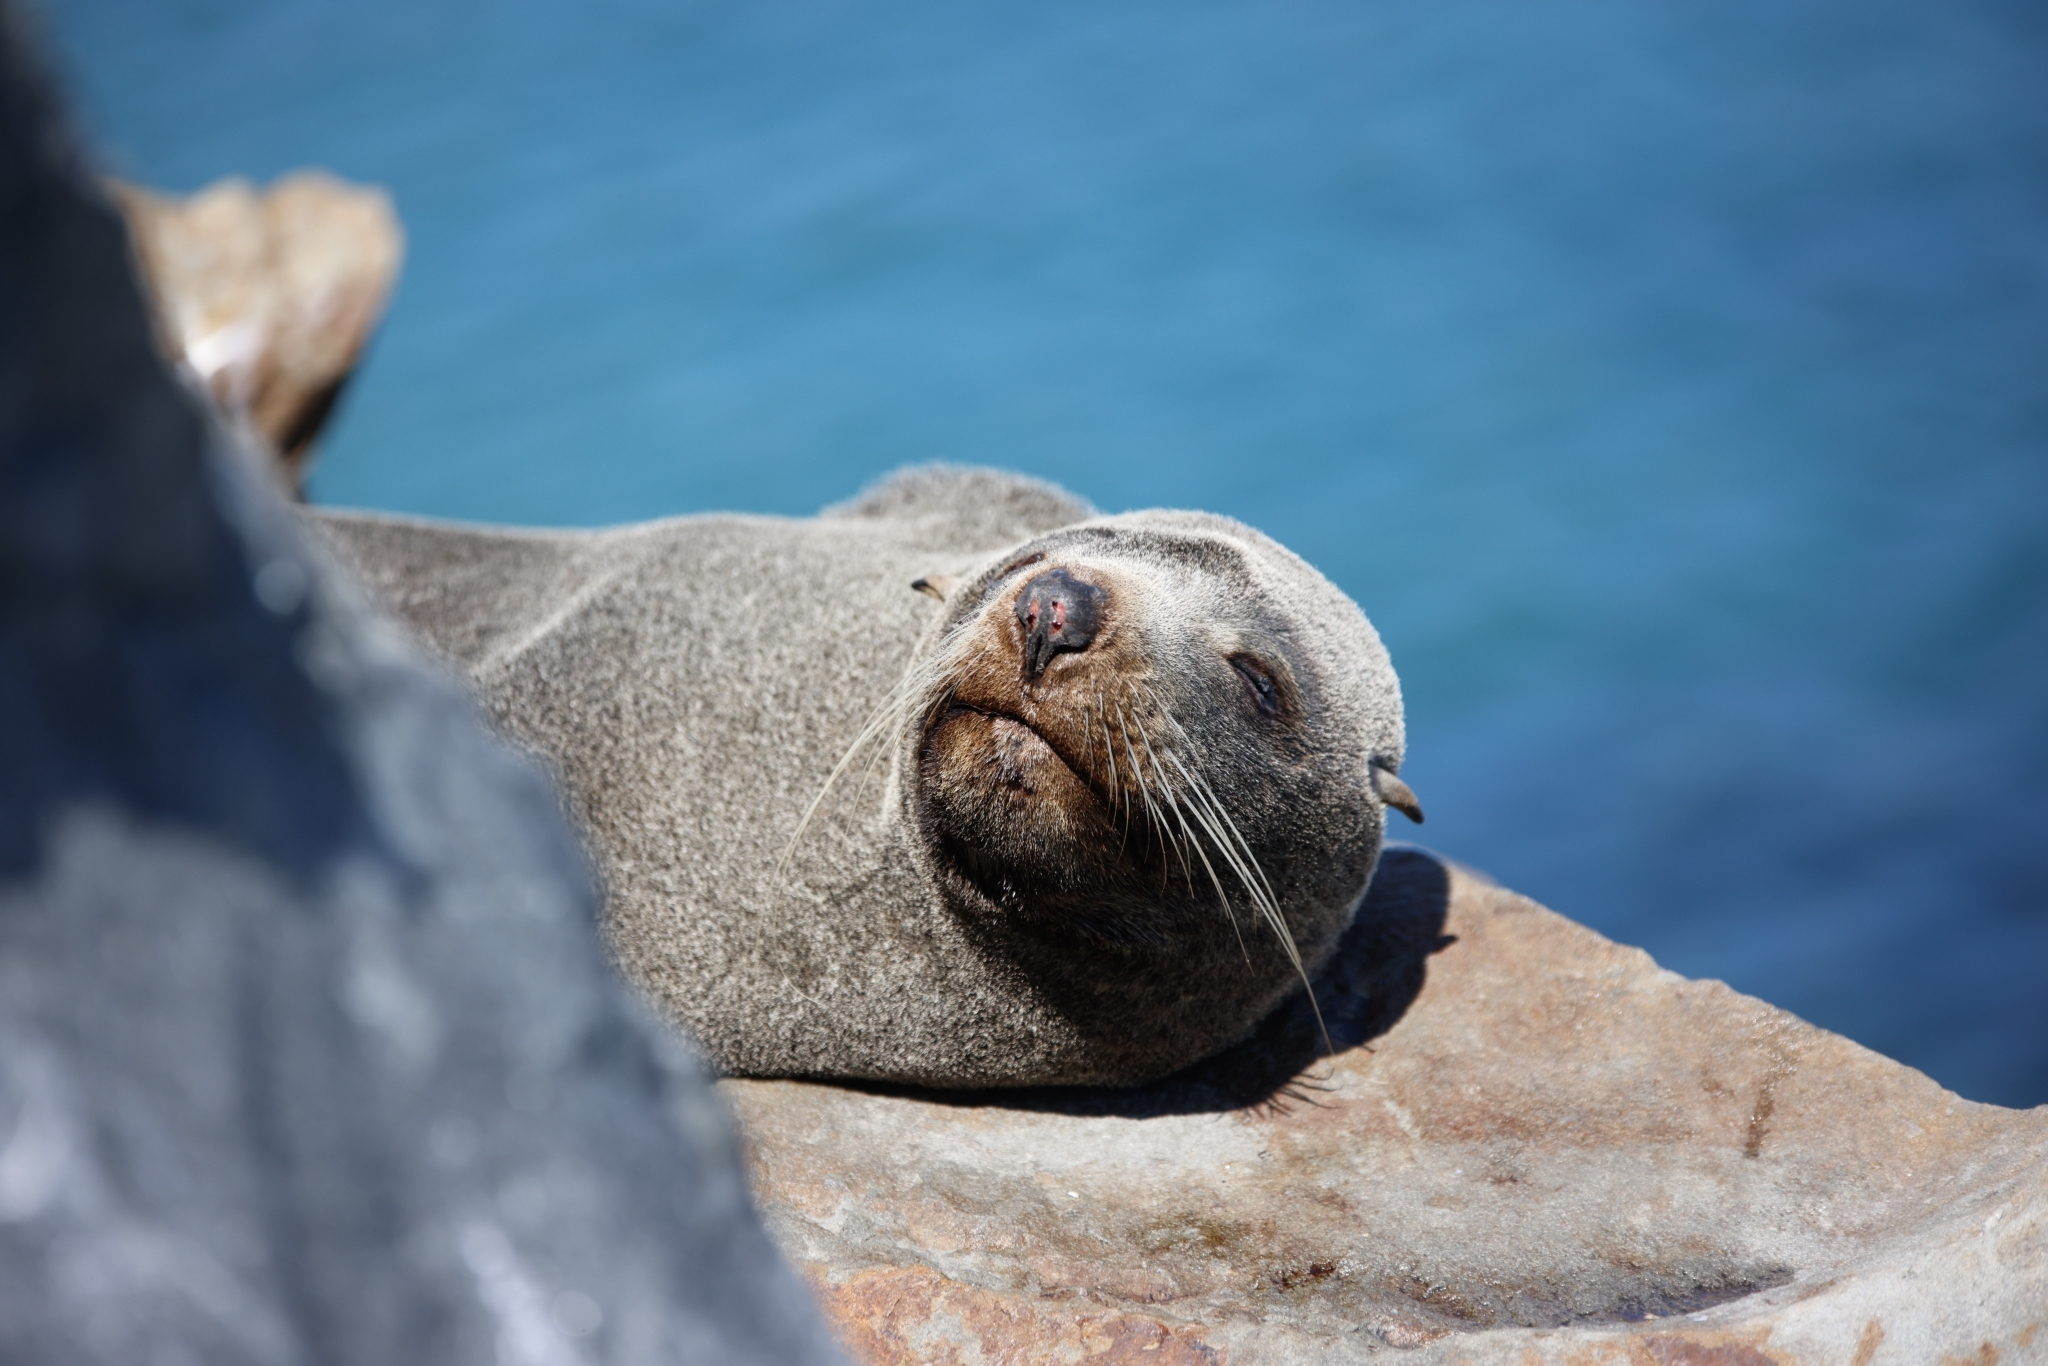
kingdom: Animalia
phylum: Chordata
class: Mammalia
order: Carnivora
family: Otariidae
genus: Arctocephalus
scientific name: Arctocephalus pusillus
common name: Brown fur seal
